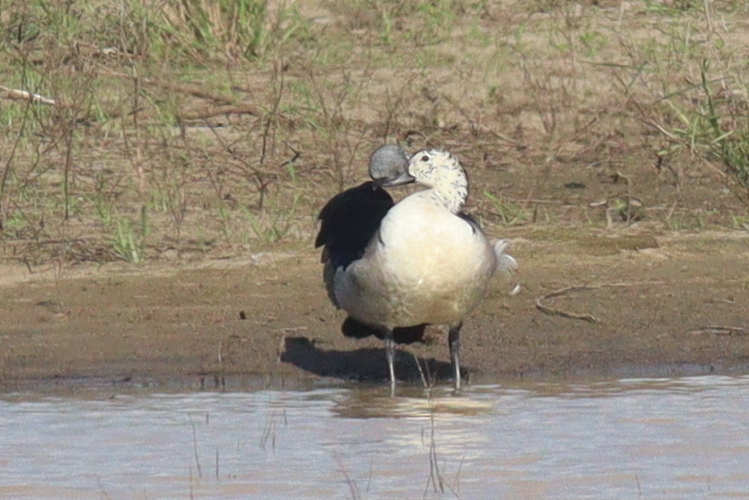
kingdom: Animalia
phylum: Chordata
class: Aves
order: Anseriformes
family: Anatidae
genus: Sarkidiornis
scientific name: Sarkidiornis melanotos
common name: Comb duck
